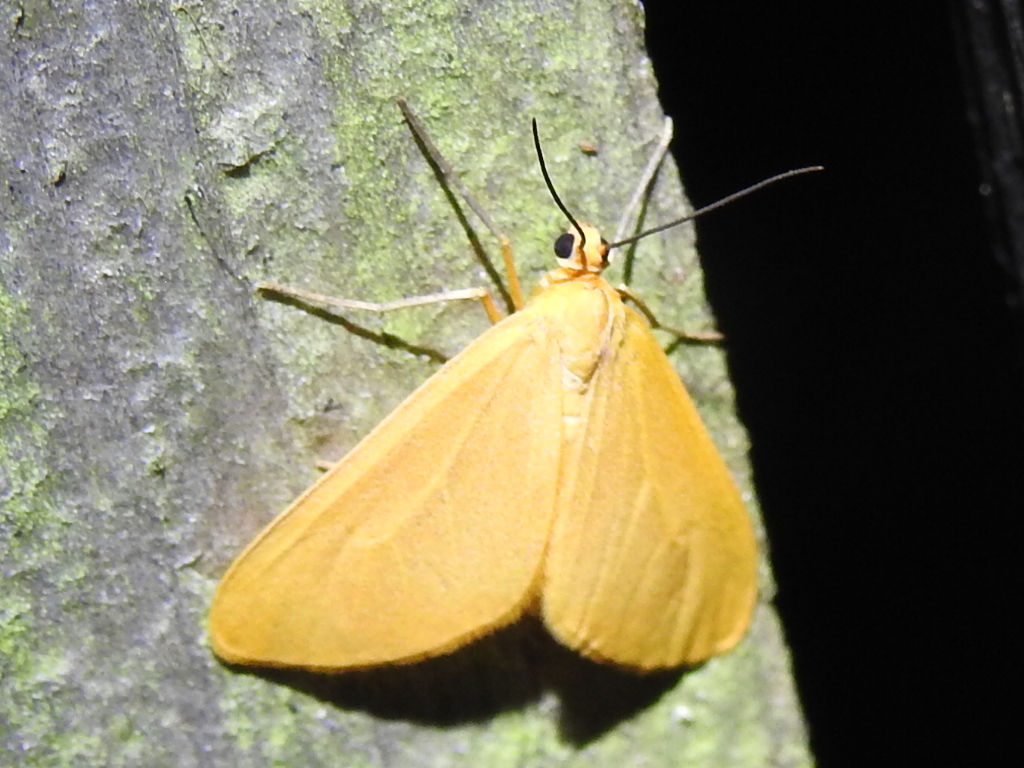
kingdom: Animalia
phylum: Arthropoda
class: Insecta
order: Lepidoptera
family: Geometridae
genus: Eubaphe
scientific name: Eubaphe unicolor
